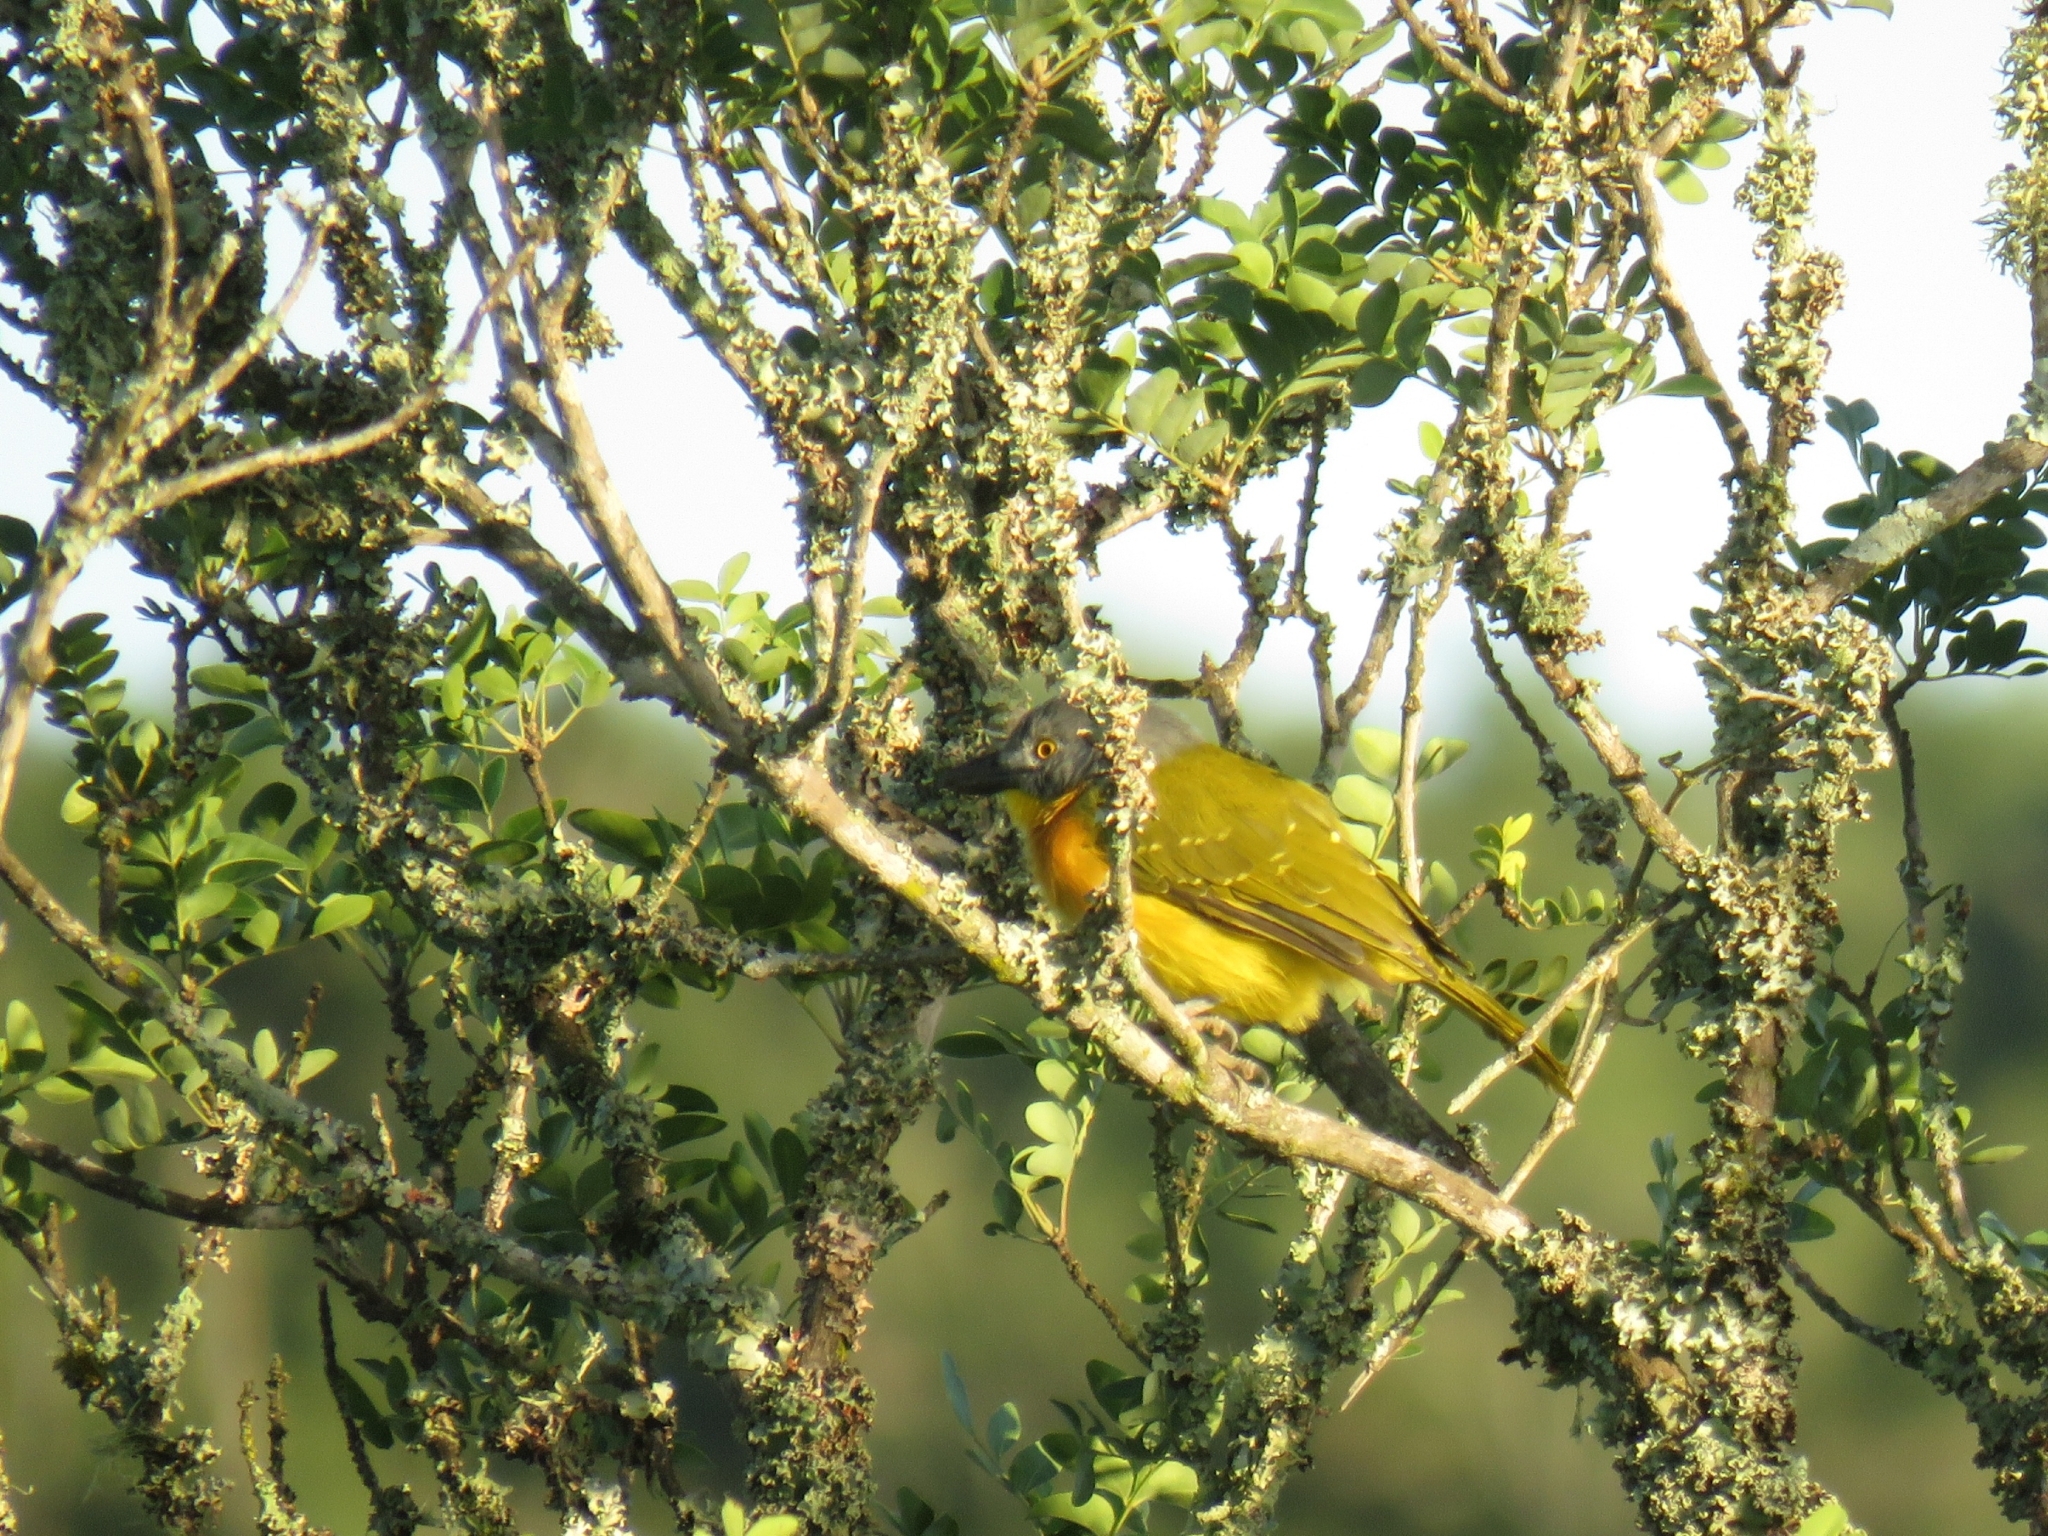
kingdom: Animalia
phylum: Chordata
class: Aves
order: Passeriformes
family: Malaconotidae
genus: Malaconotus
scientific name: Malaconotus blanchoti
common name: Grey-headed bushshrike
